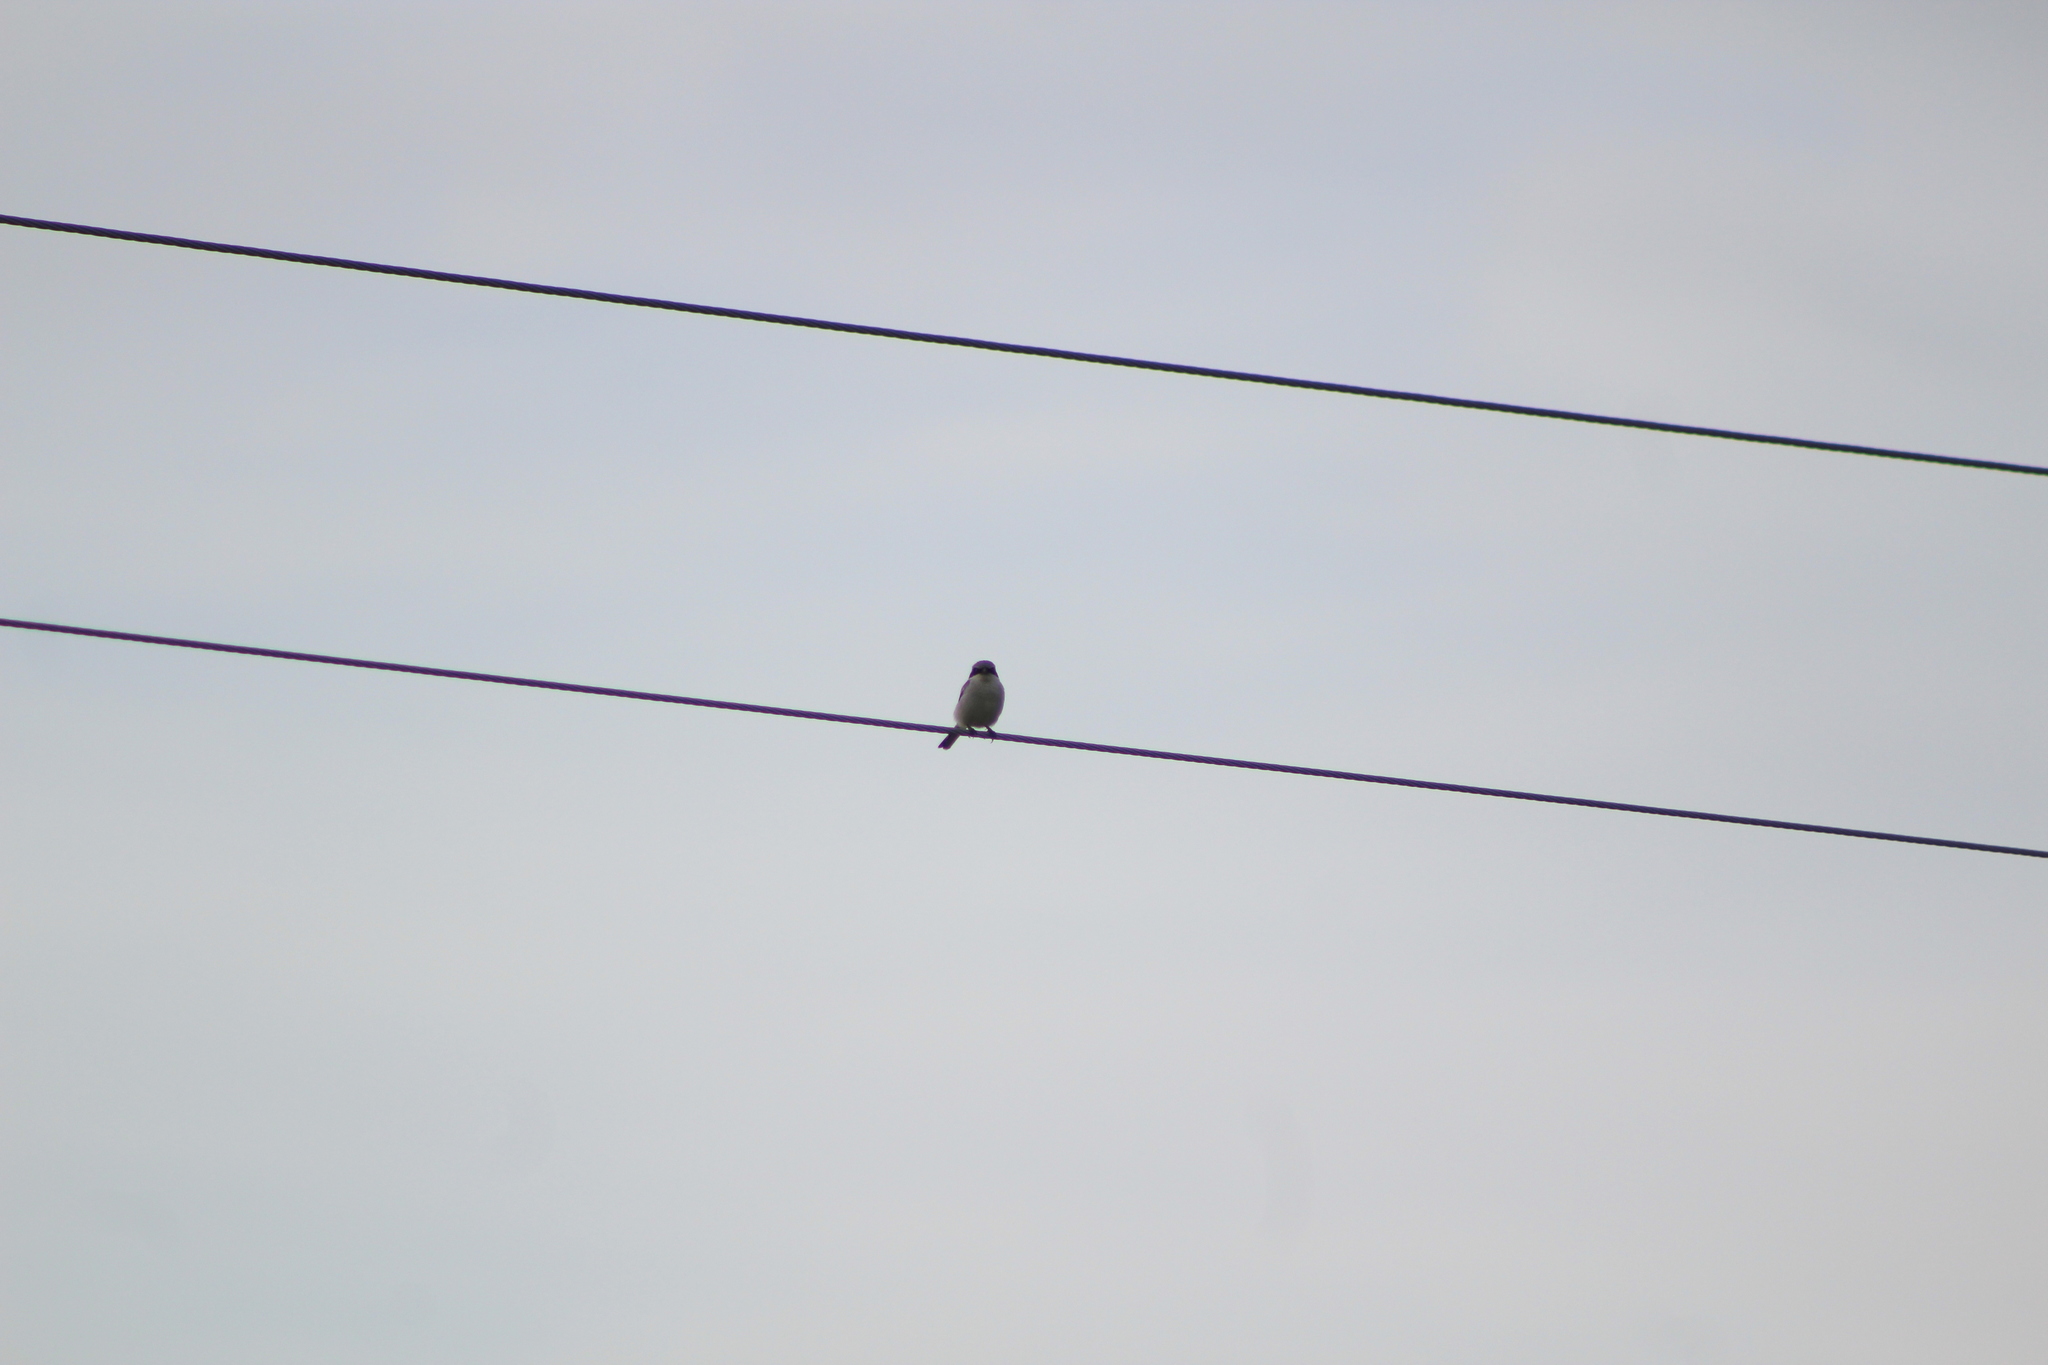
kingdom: Animalia
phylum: Chordata
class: Aves
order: Passeriformes
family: Laniidae
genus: Lanius
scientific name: Lanius ludovicianus
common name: Loggerhead shrike
